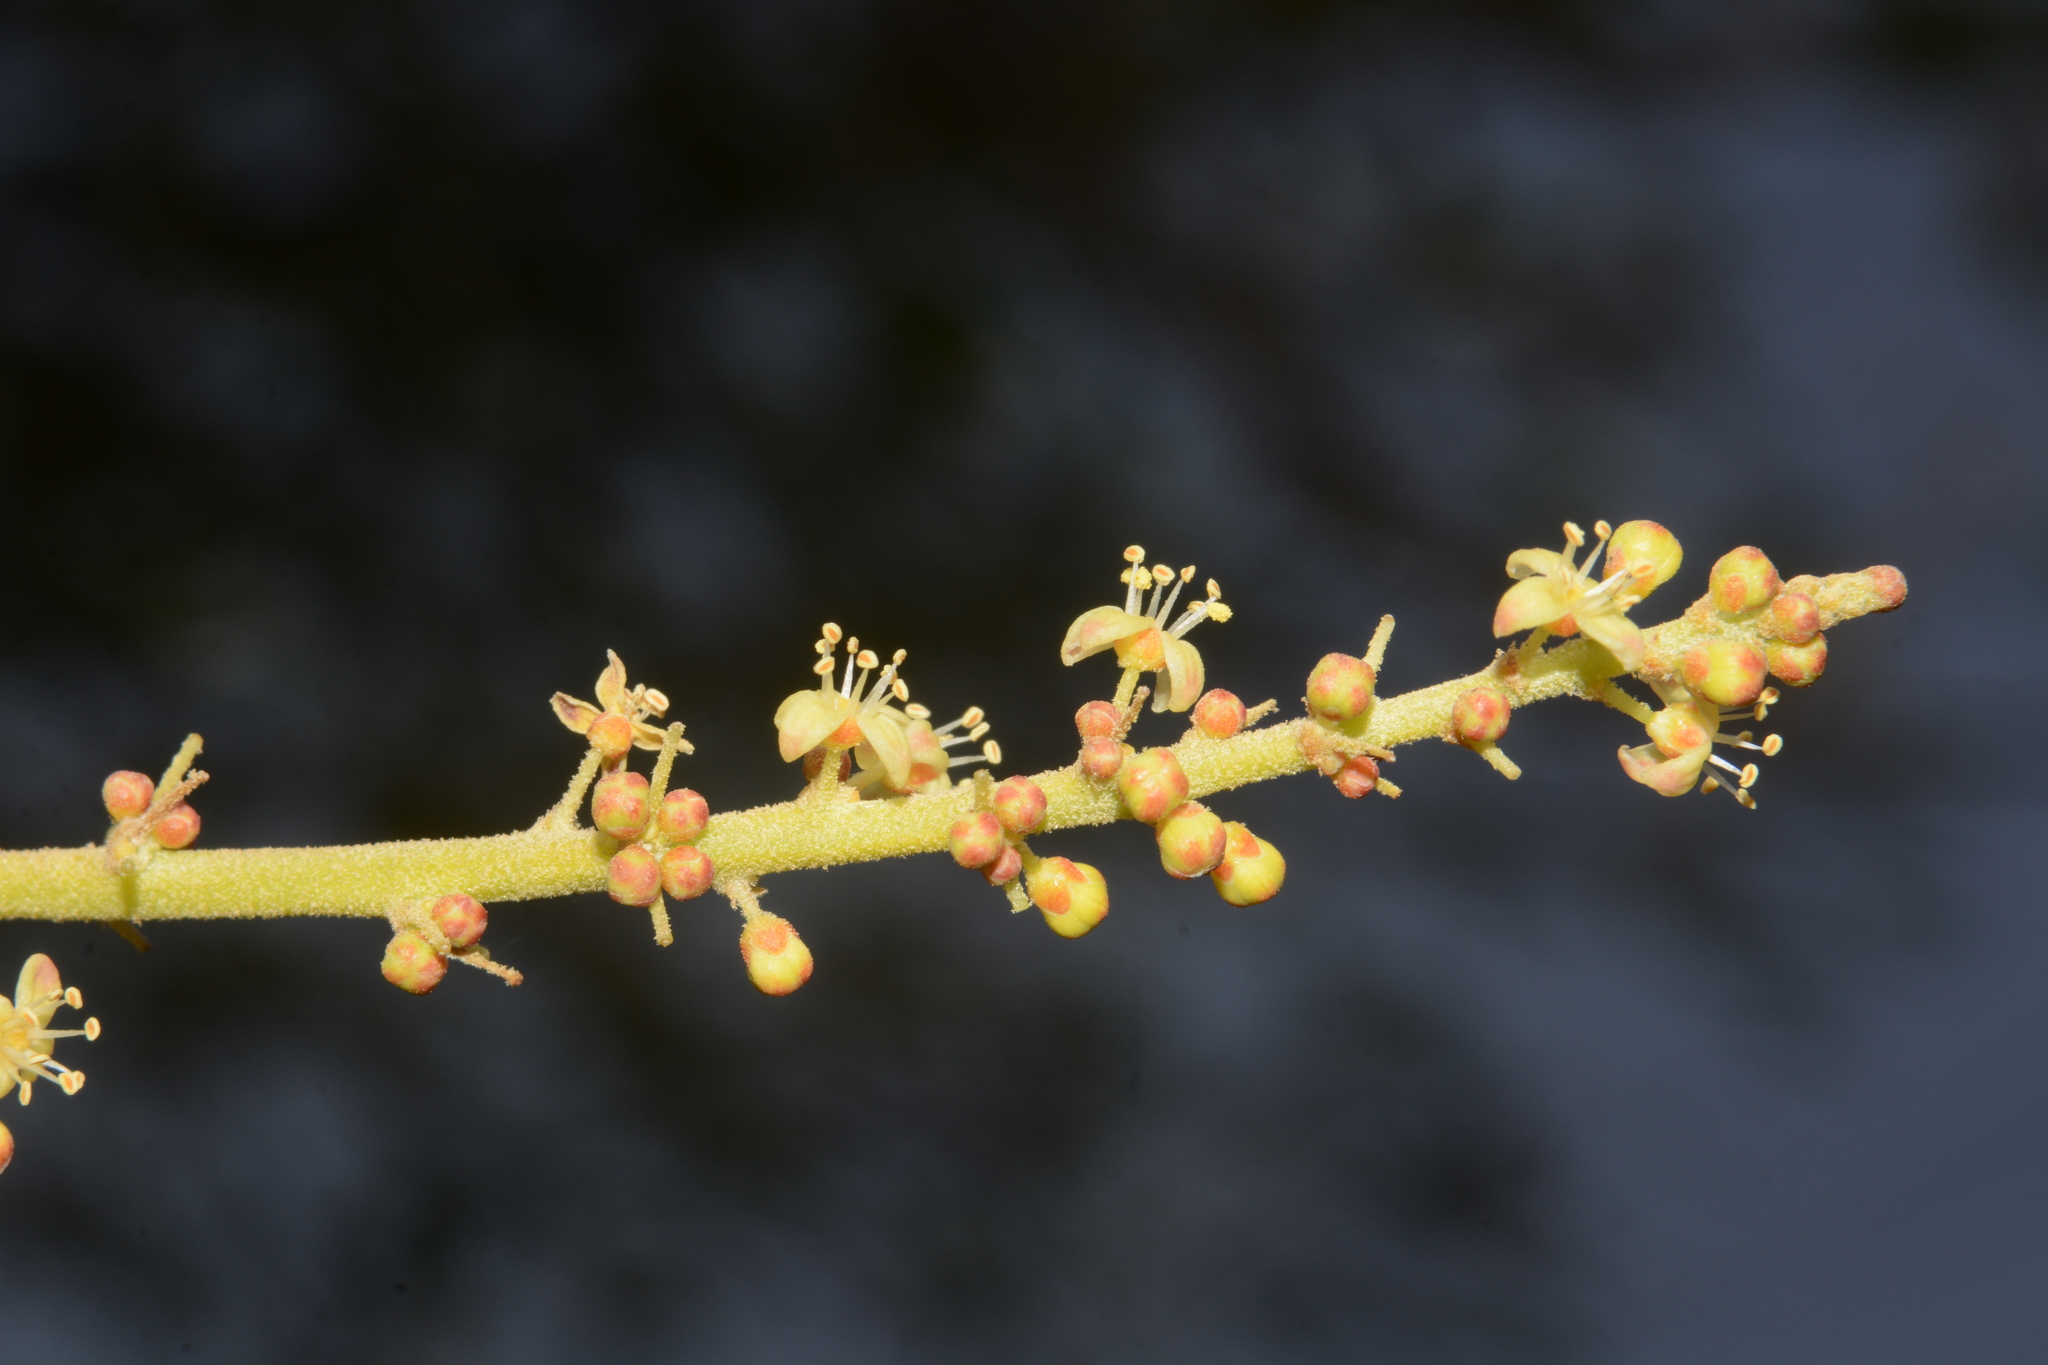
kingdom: Plantae
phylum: Tracheophyta
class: Magnoliopsida
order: Sapindales
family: Anacardiaceae
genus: Lannea
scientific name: Lannea coromandelica
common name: Indian ash tree
